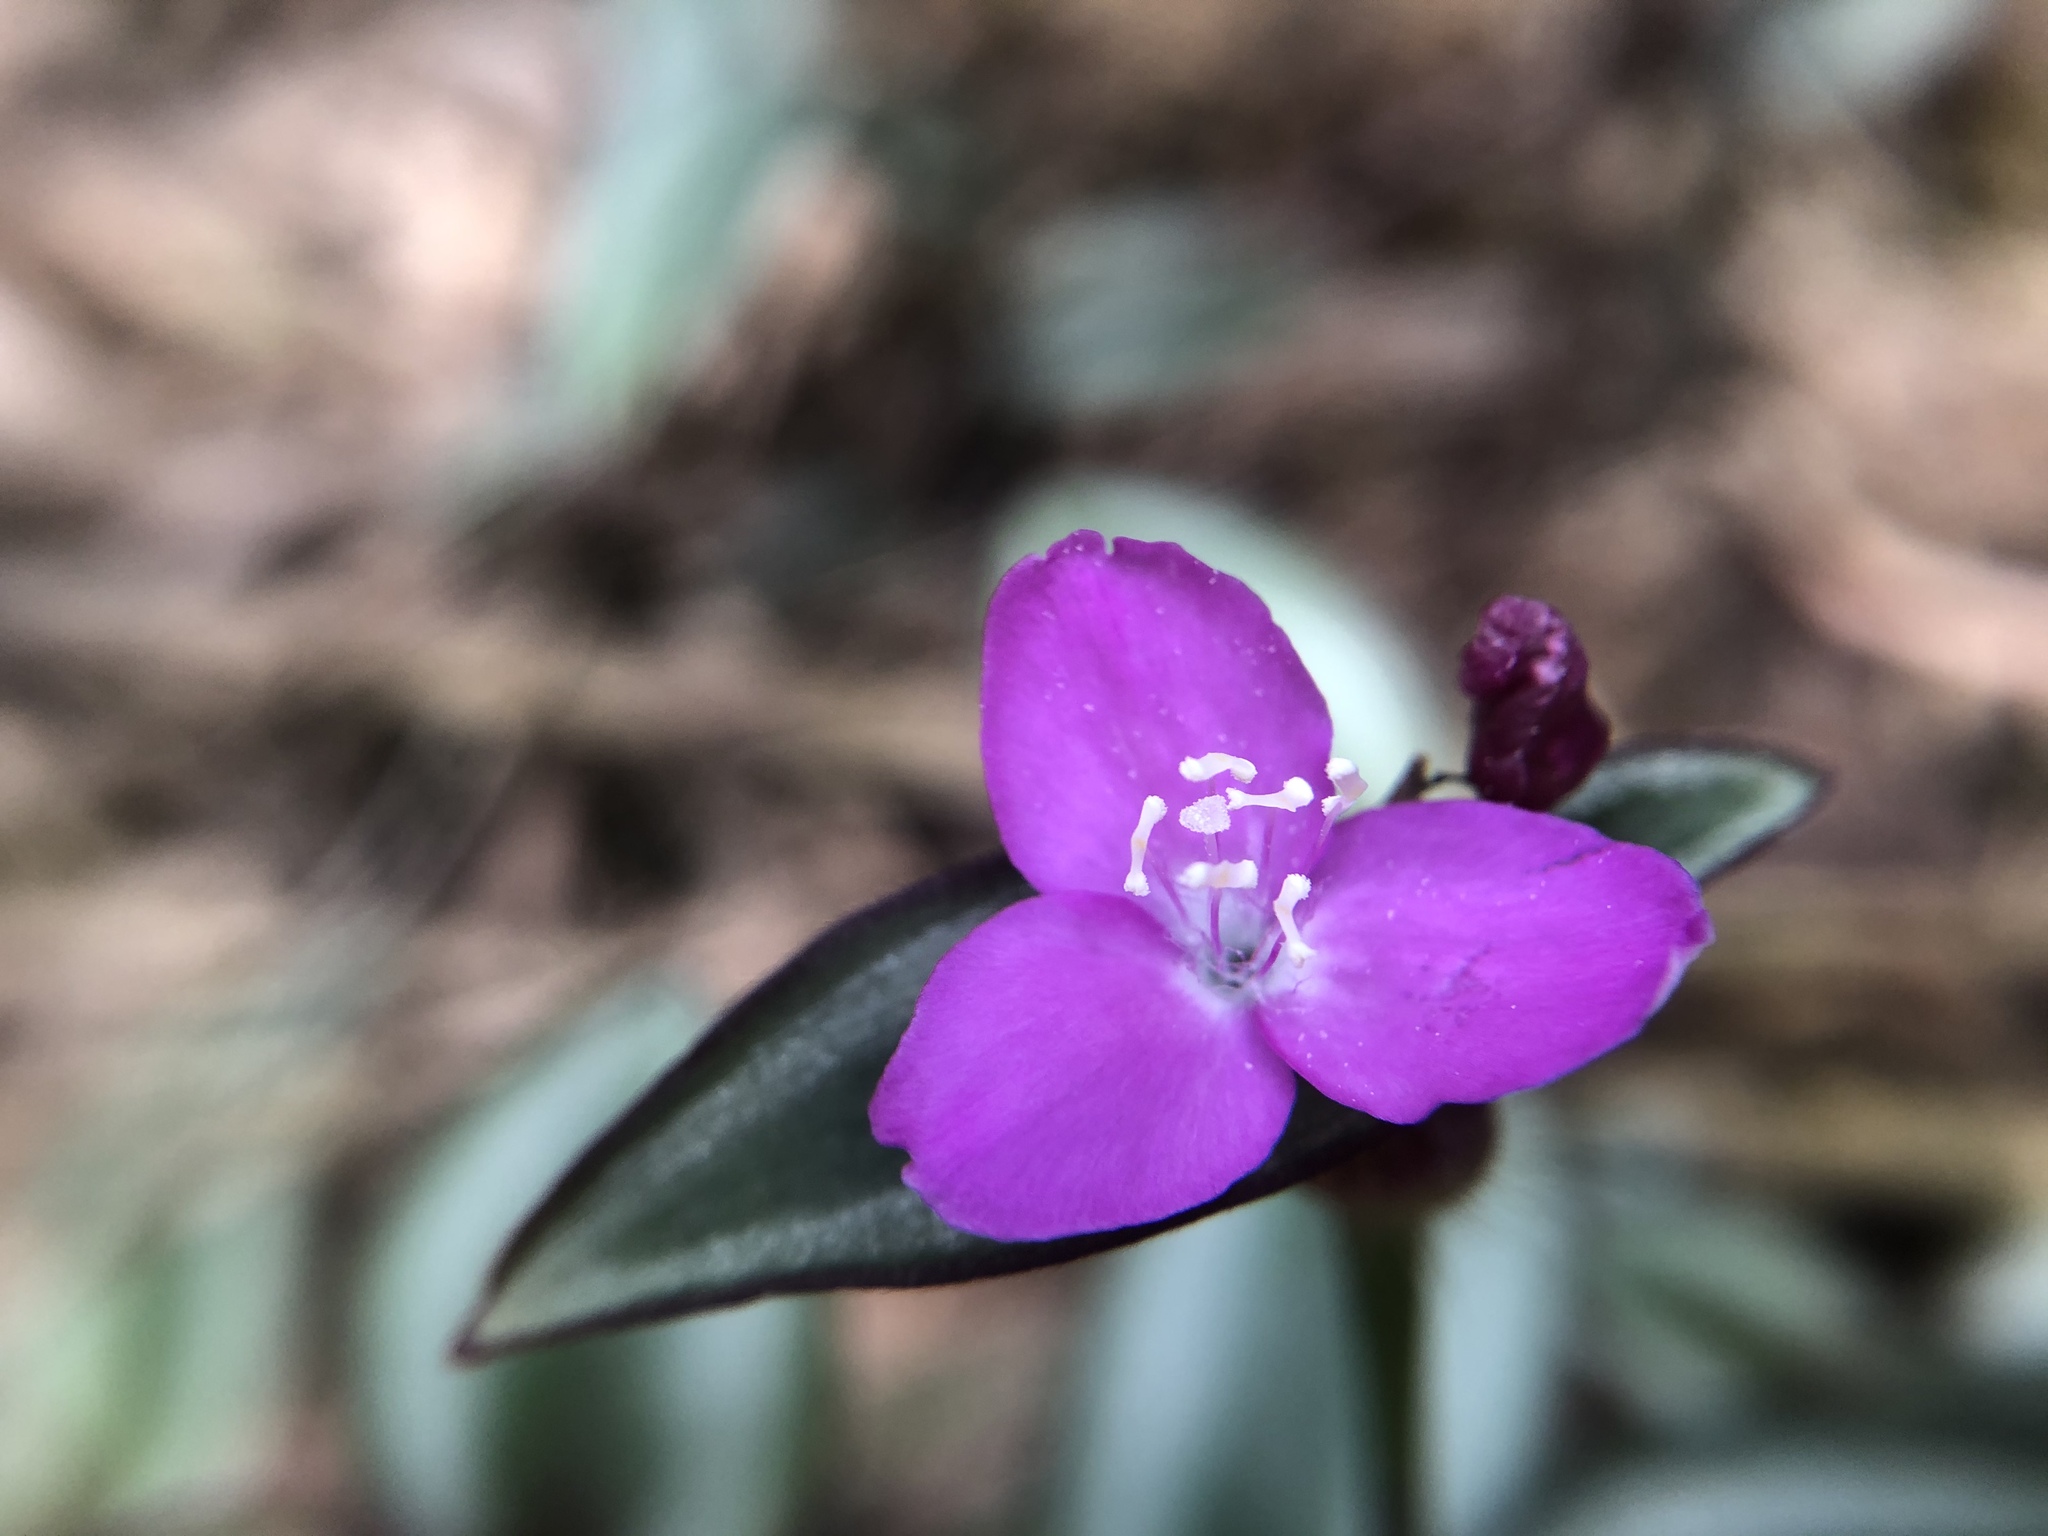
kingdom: Plantae
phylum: Tracheophyta
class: Liliopsida
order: Commelinales
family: Commelinaceae
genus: Tradescantia
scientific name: Tradescantia zebrina
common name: Inchplant
